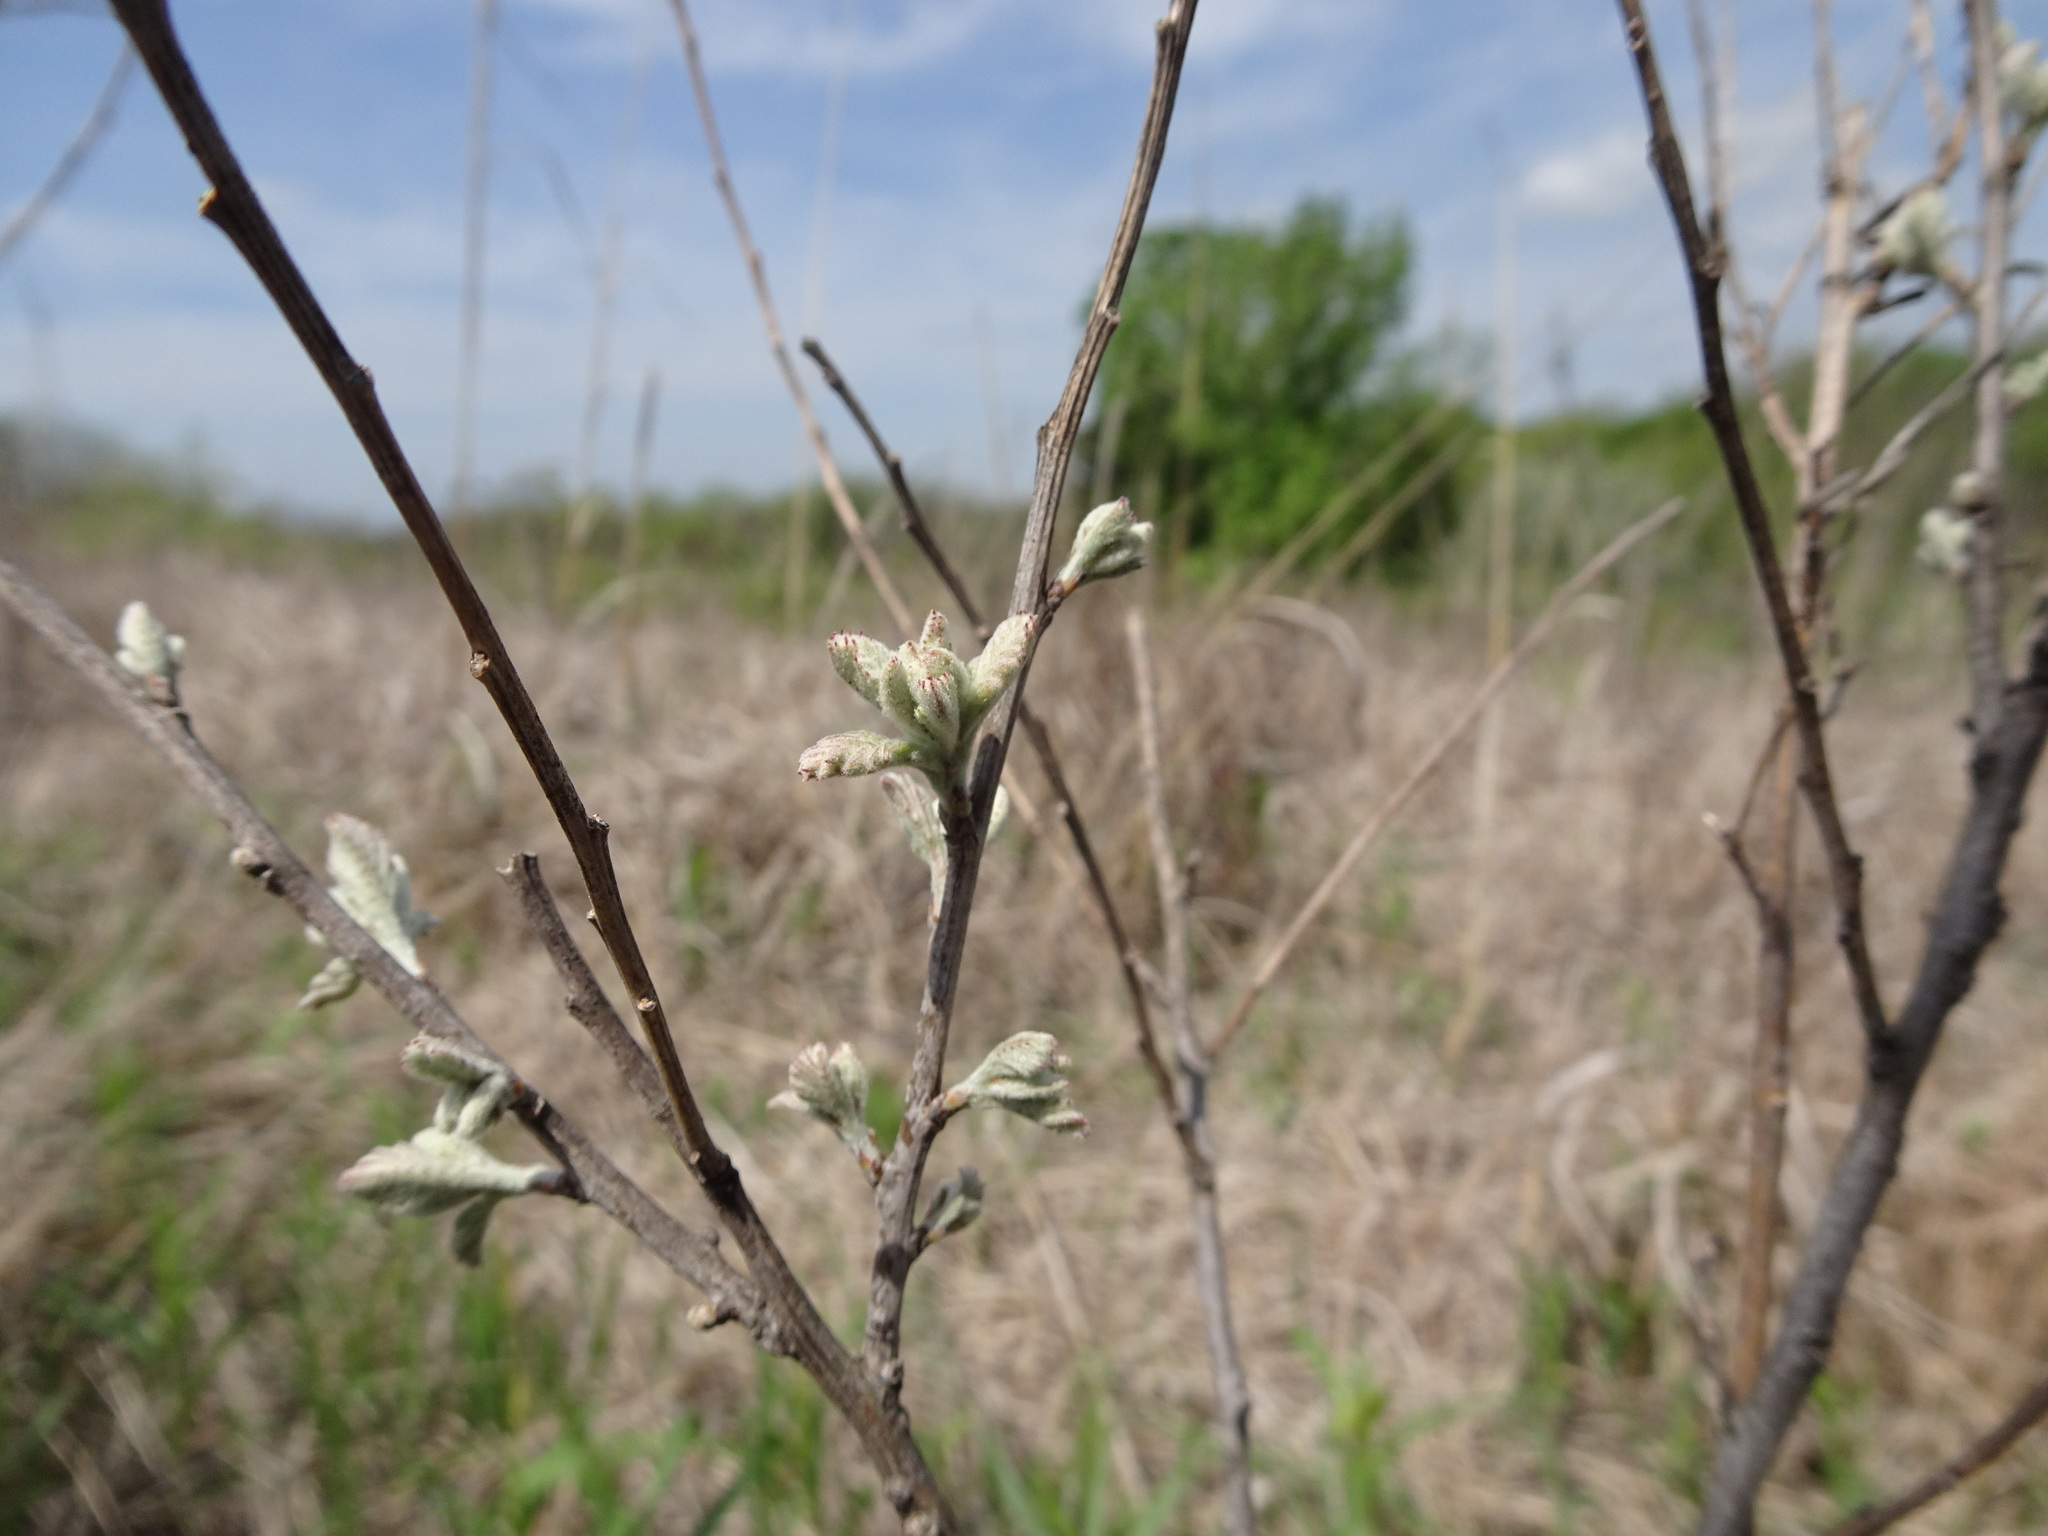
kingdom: Plantae
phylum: Tracheophyta
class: Magnoliopsida
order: Fabales
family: Fabaceae
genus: Amorpha
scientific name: Amorpha canescens
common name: Leadplant
